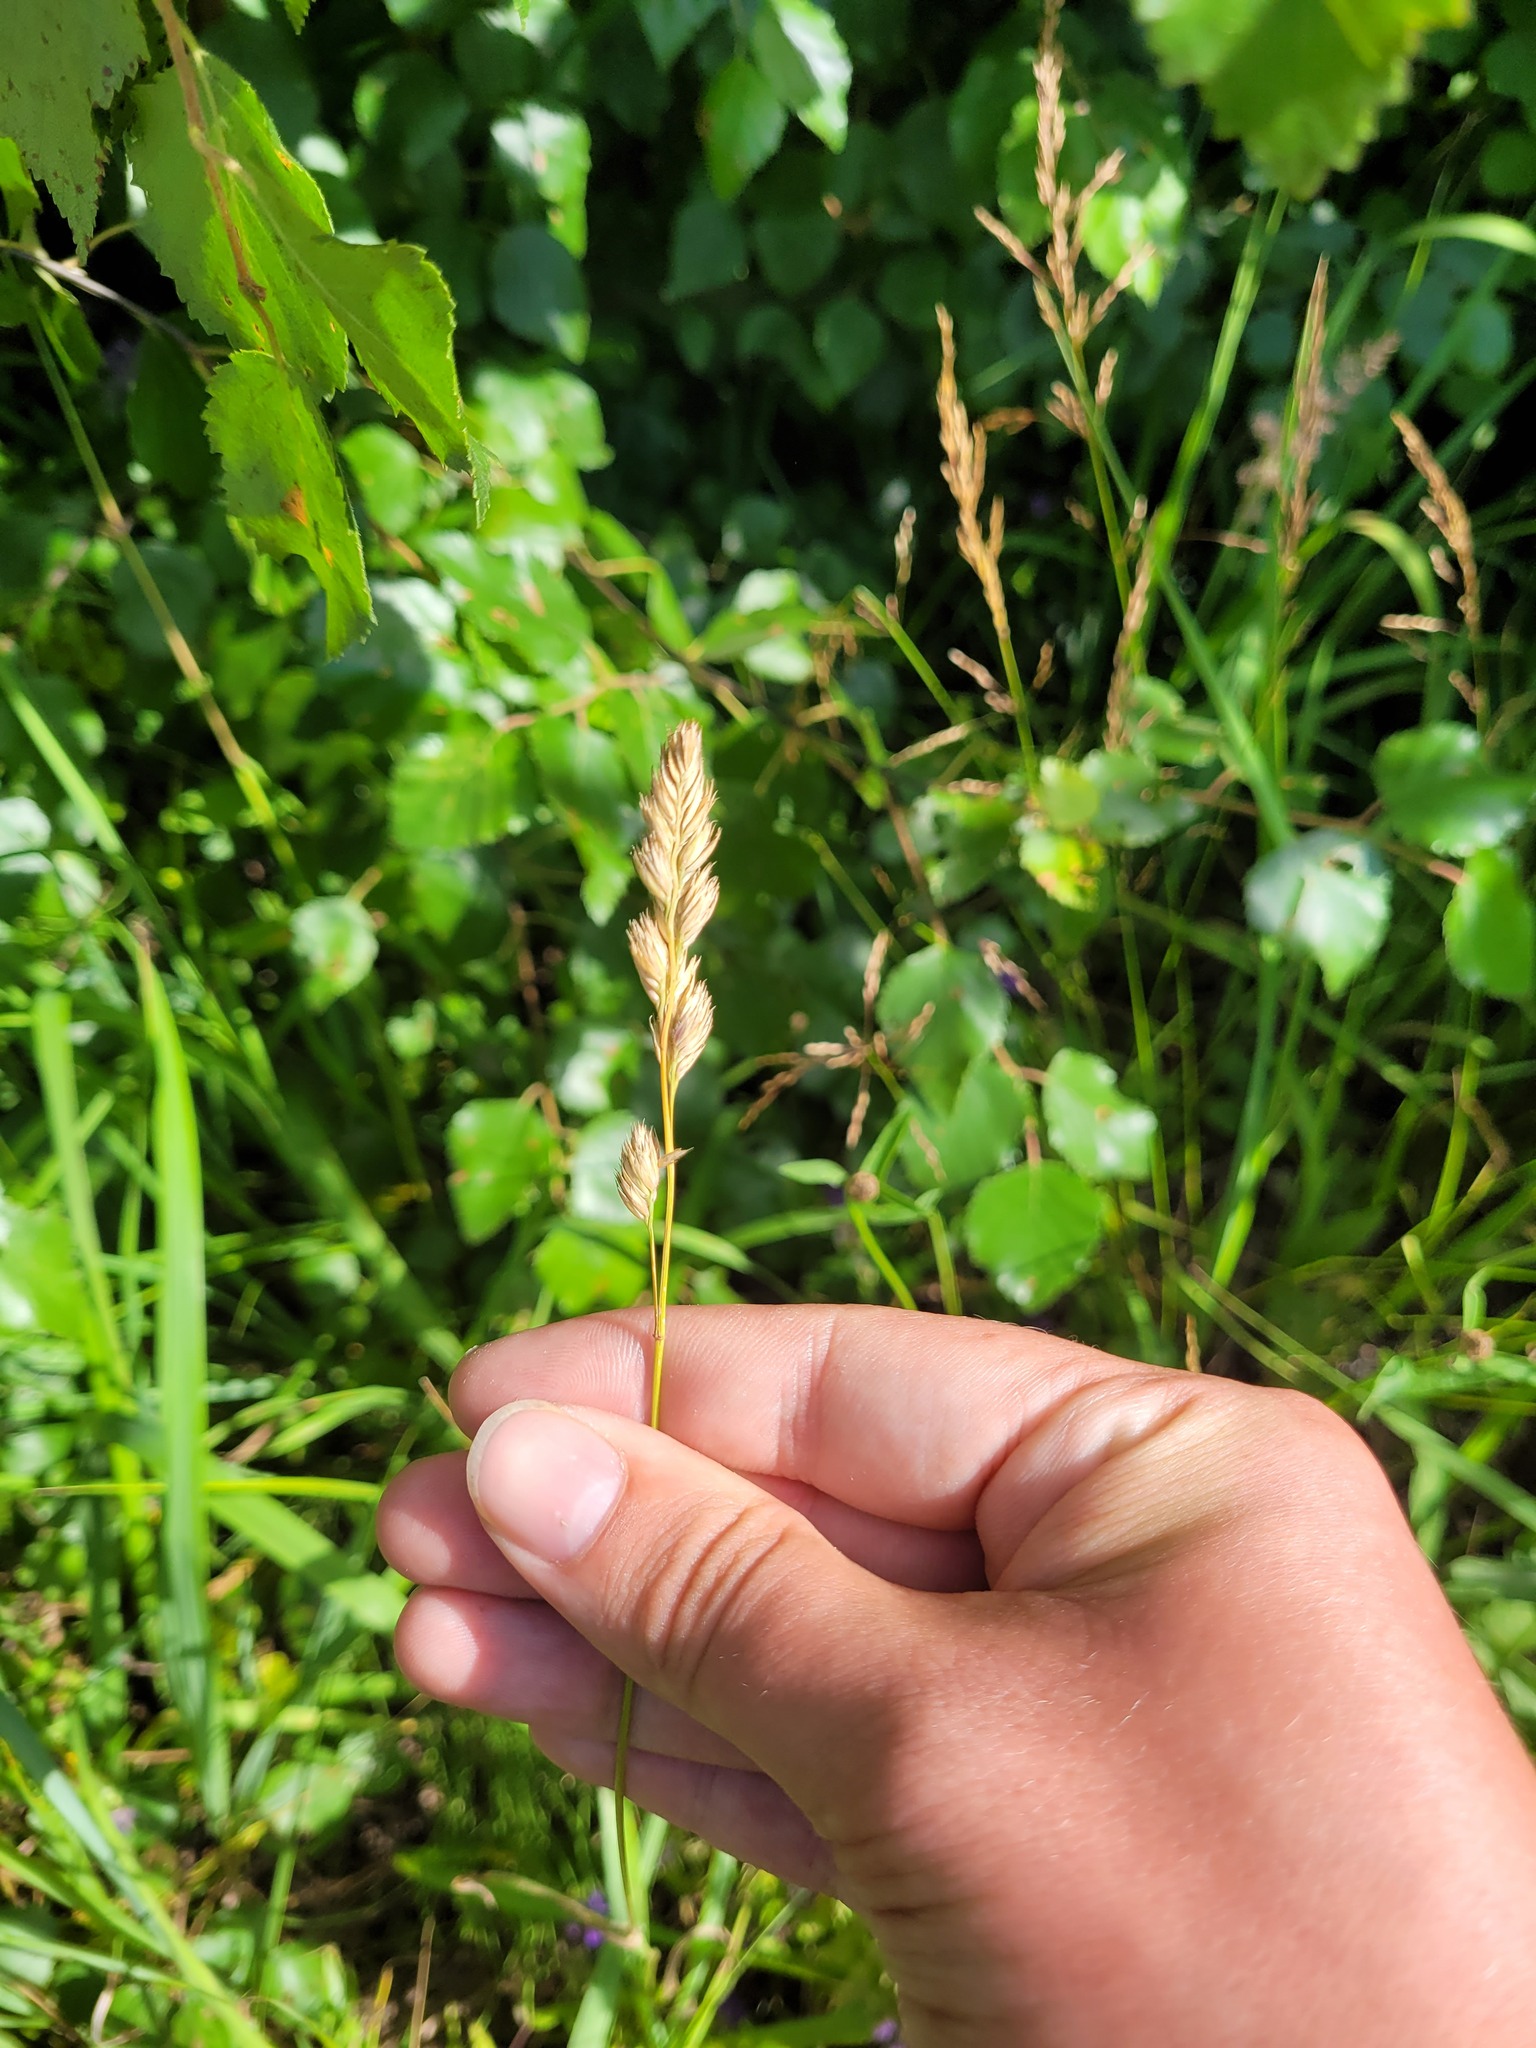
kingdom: Plantae
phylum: Tracheophyta
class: Liliopsida
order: Poales
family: Poaceae
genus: Dactylis
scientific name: Dactylis glomerata
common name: Orchardgrass
